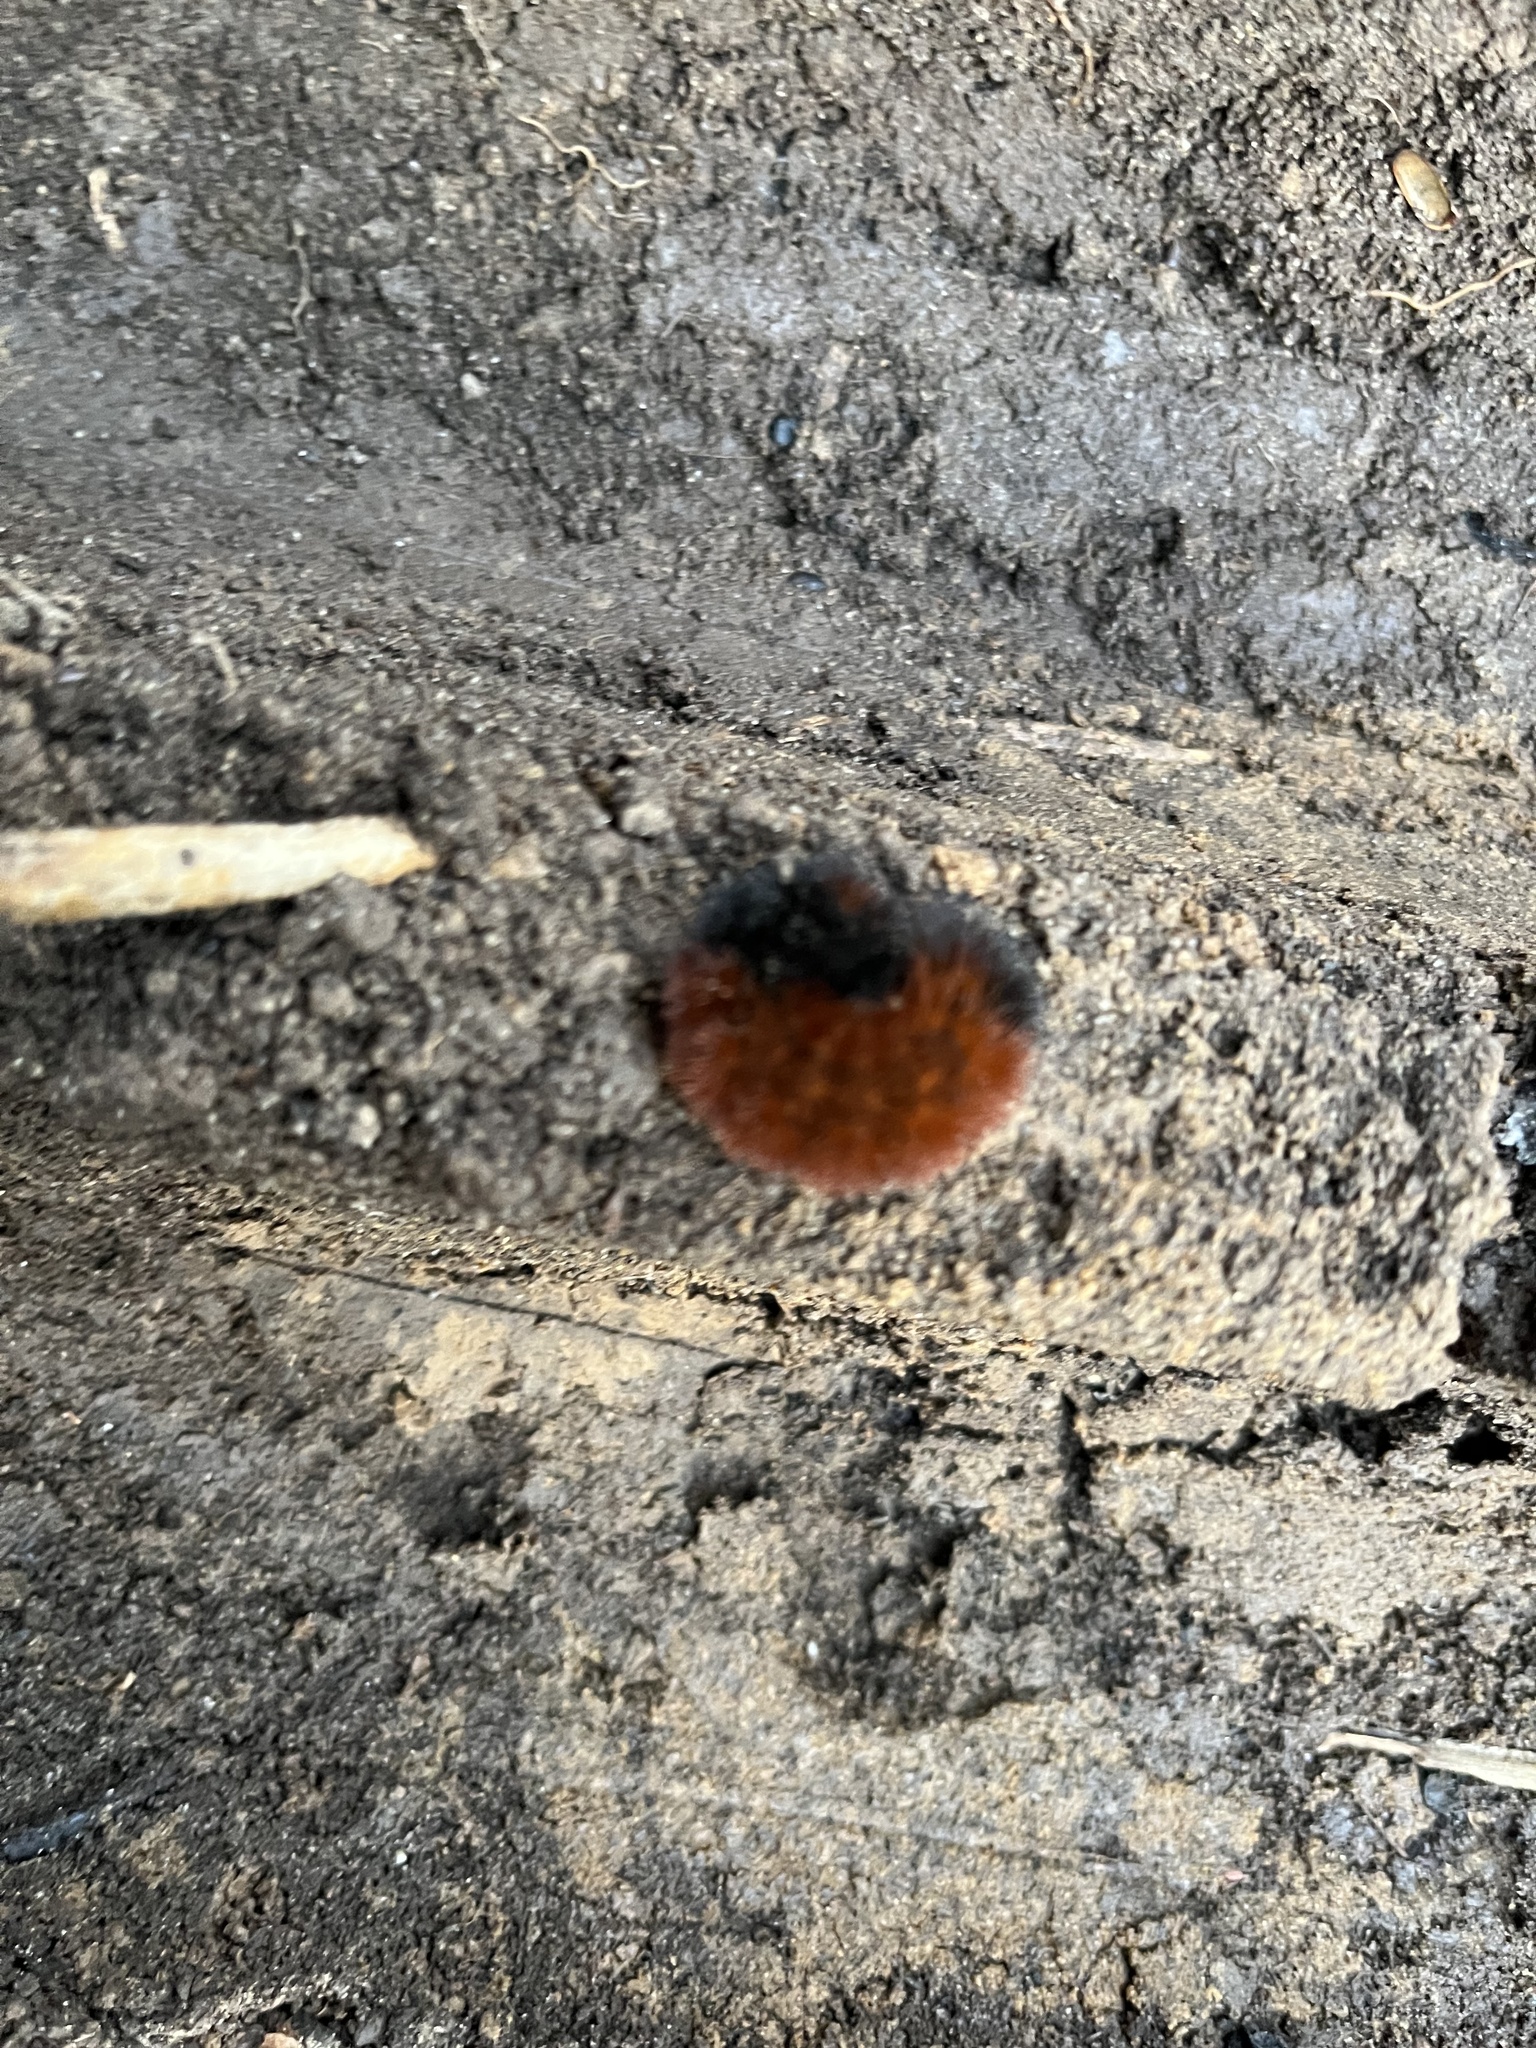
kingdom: Animalia
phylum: Arthropoda
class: Insecta
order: Lepidoptera
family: Erebidae
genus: Pyrrharctia
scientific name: Pyrrharctia isabella
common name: Isabella tiger moth
